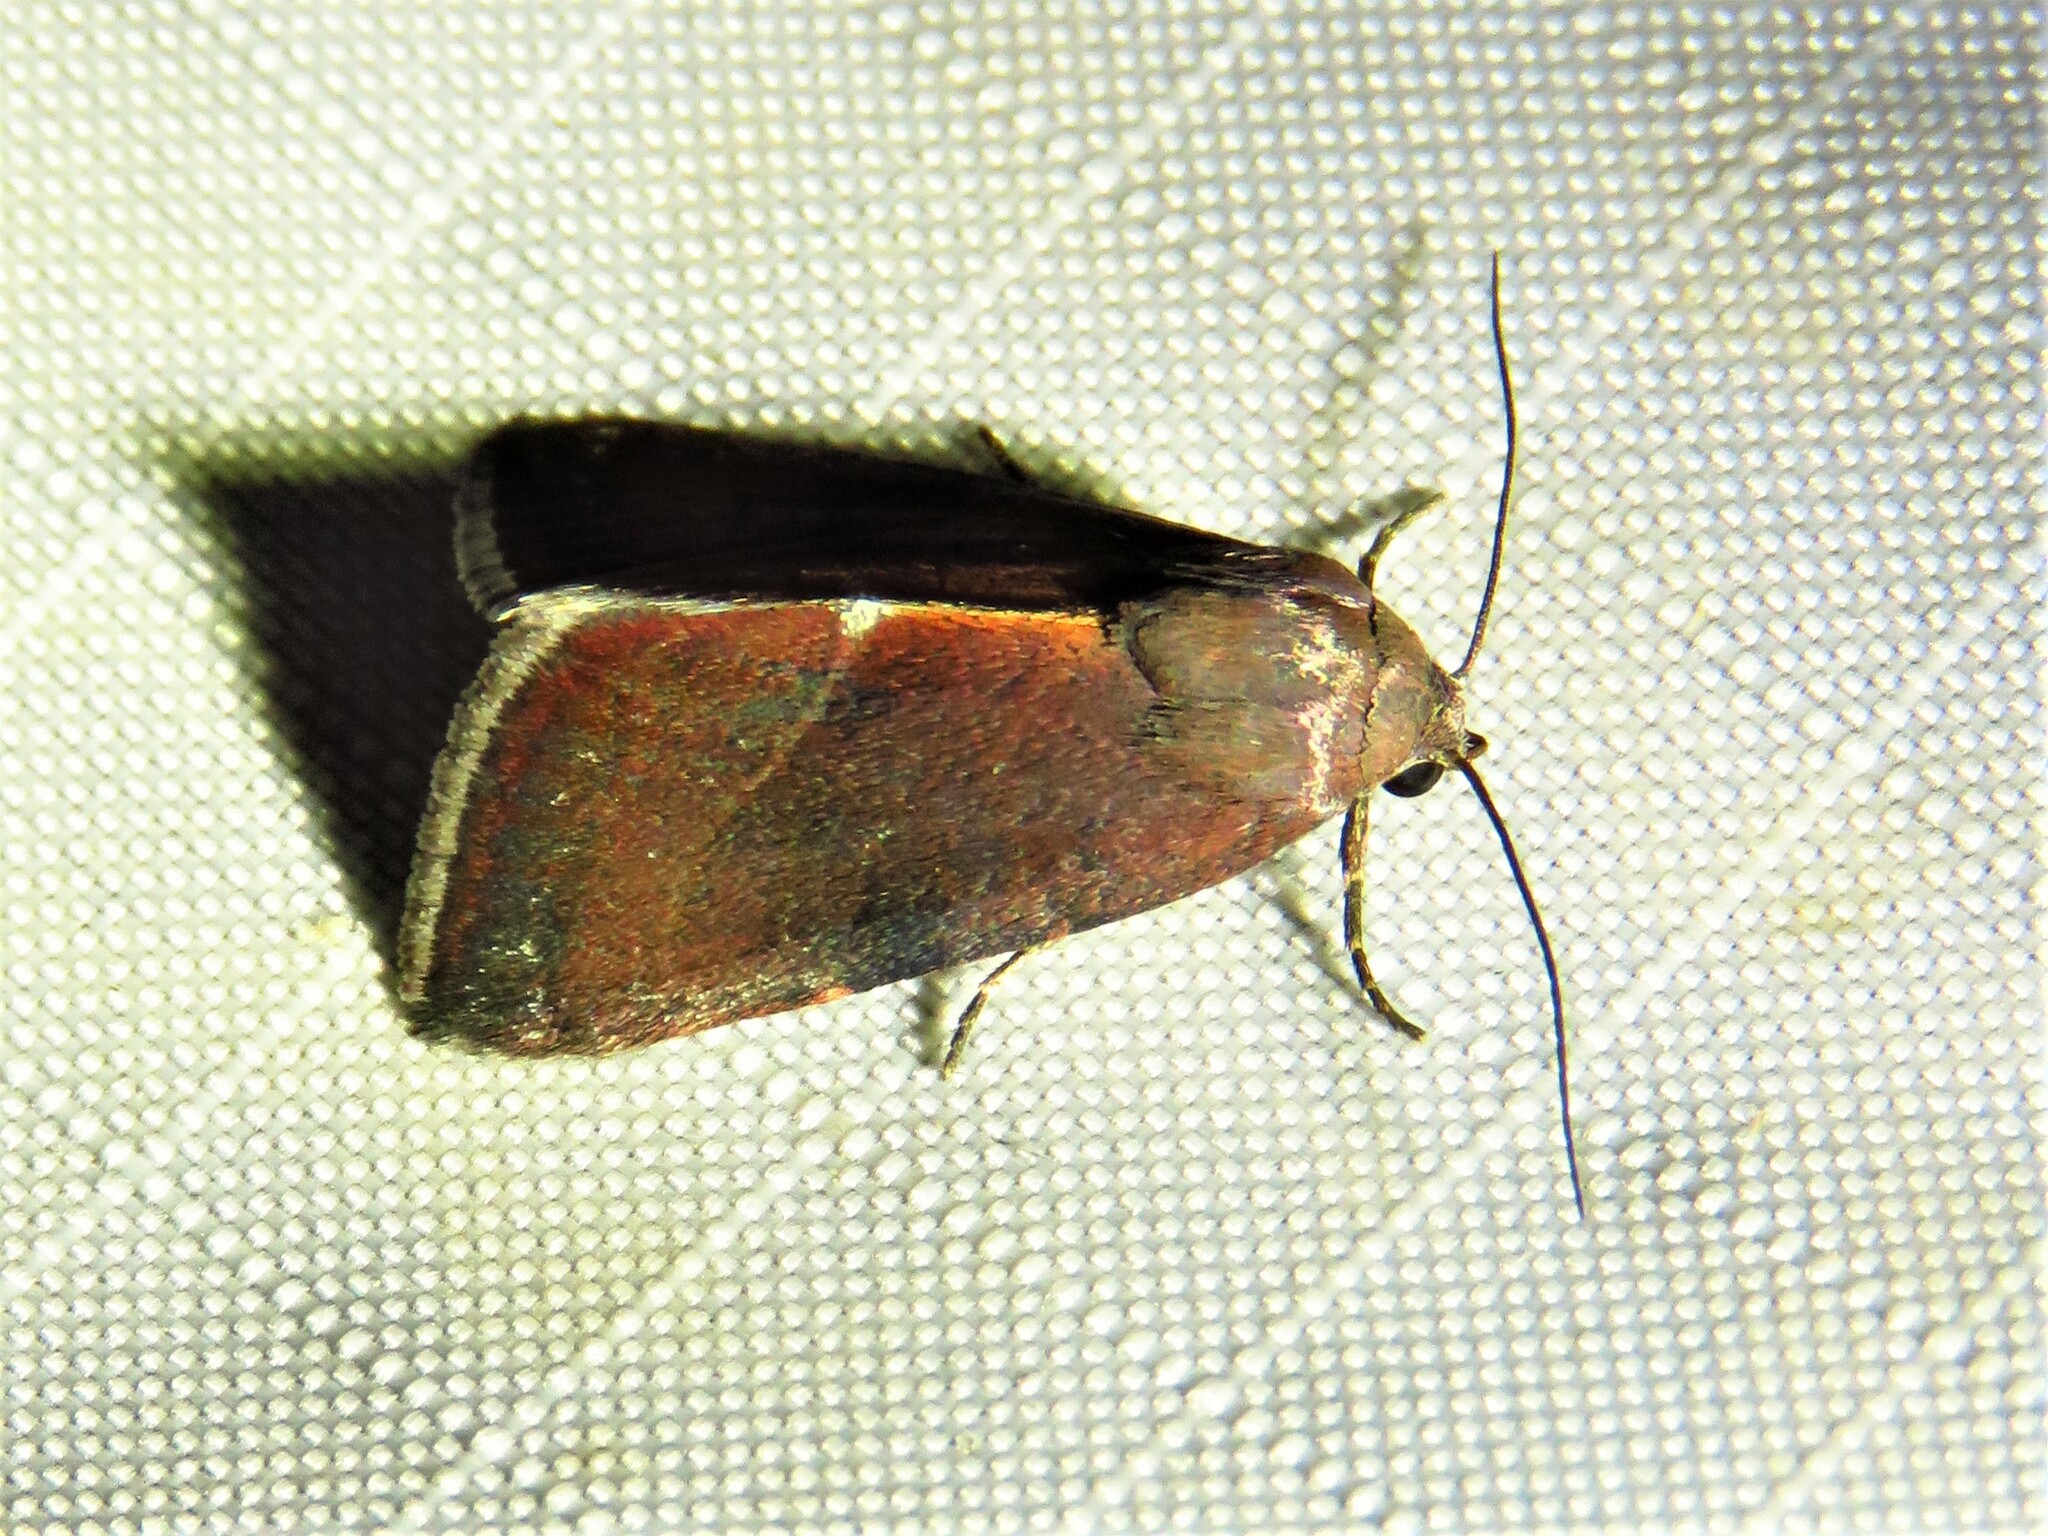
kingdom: Animalia
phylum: Arthropoda
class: Insecta
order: Lepidoptera
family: Noctuidae
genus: Galgula
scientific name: Galgula partita
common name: Wedgeling
